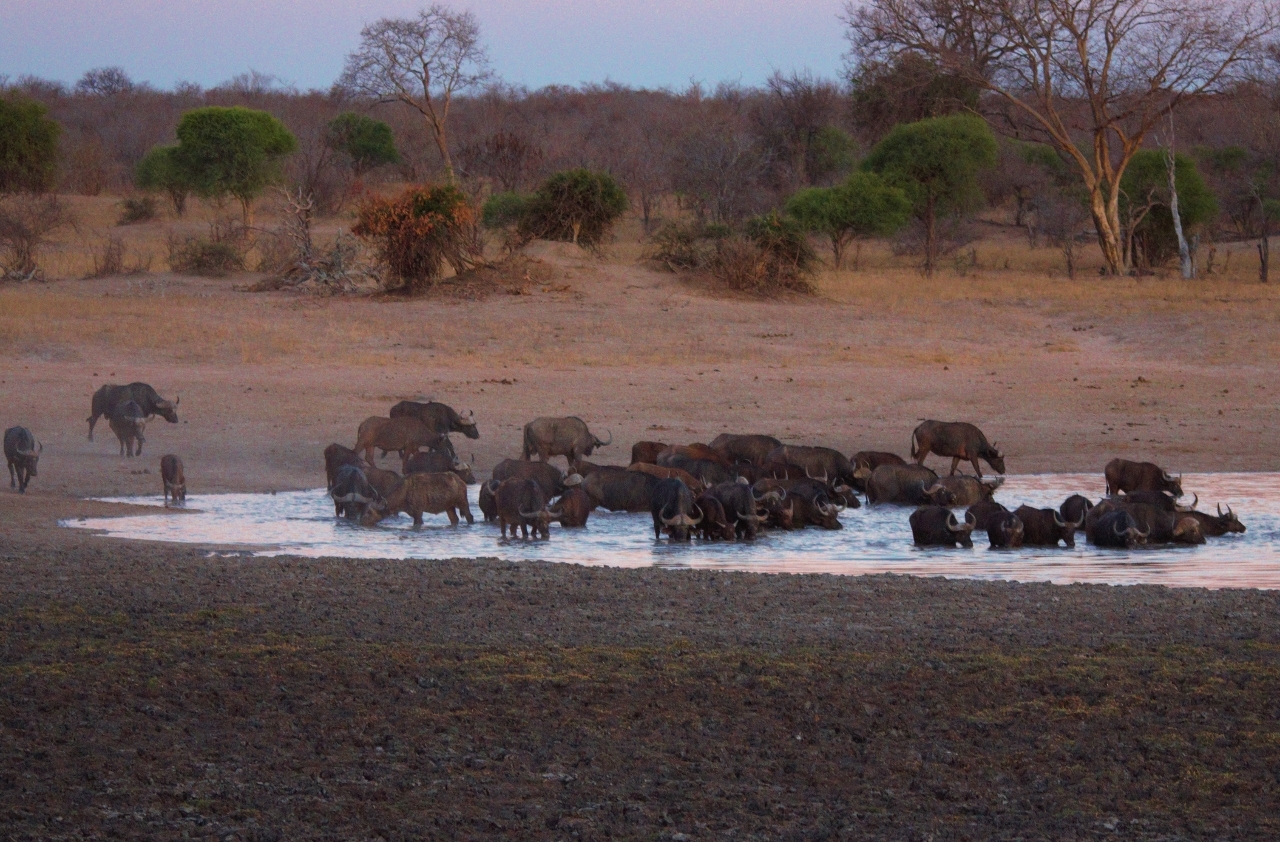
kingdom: Animalia
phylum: Chordata
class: Mammalia
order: Artiodactyla
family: Bovidae
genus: Syncerus
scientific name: Syncerus caffer
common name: African buffalo
